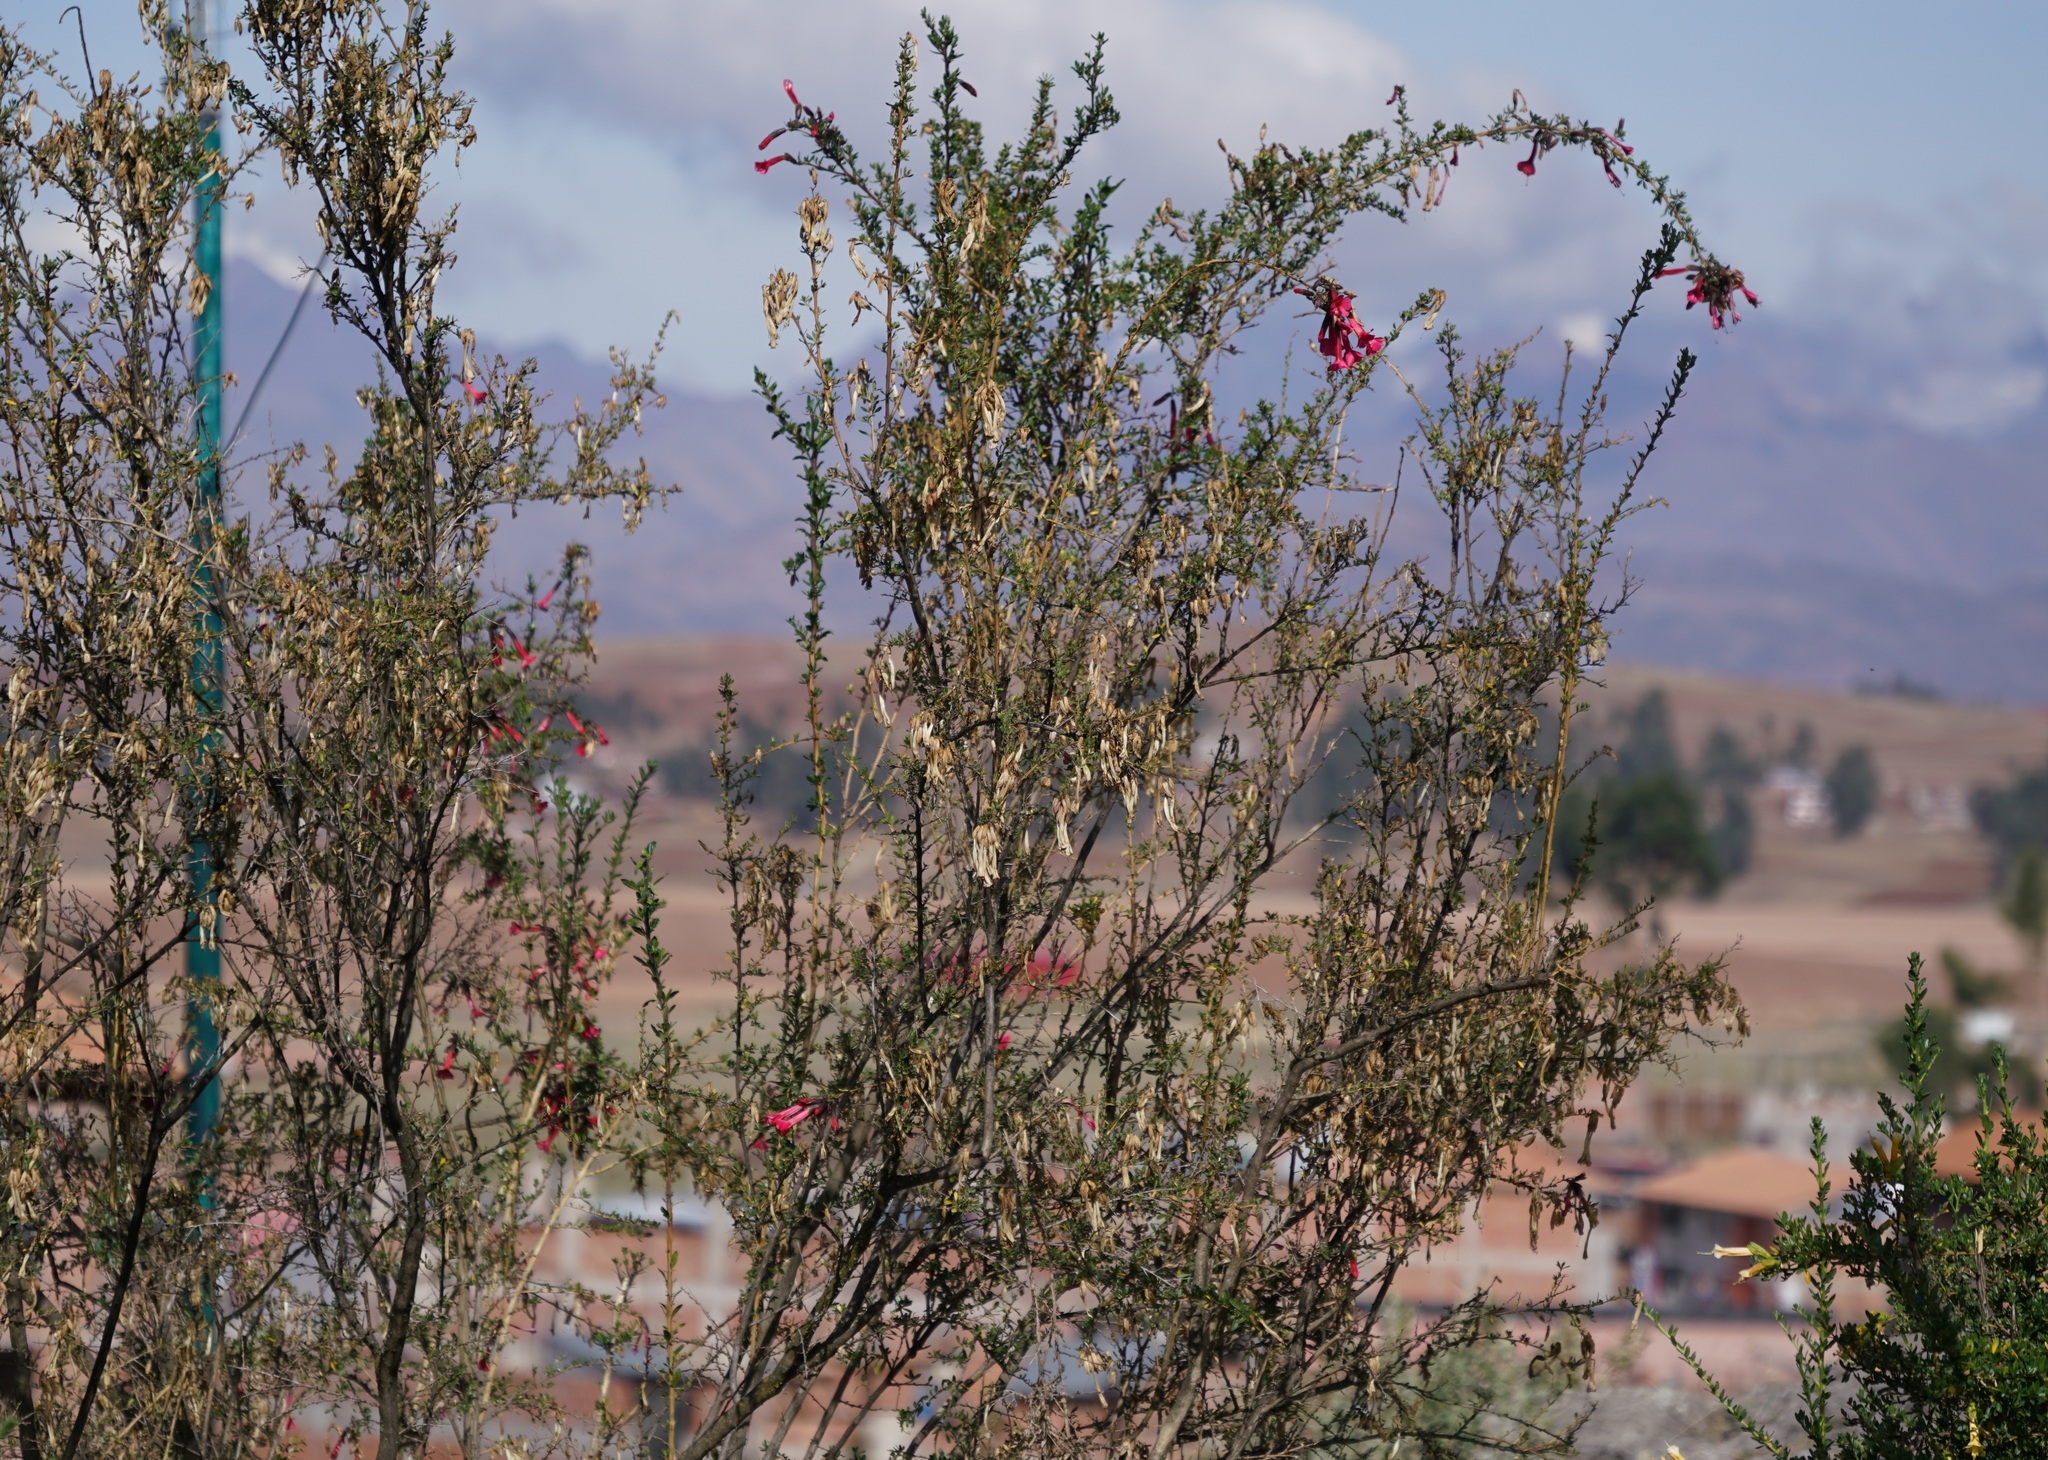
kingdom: Plantae
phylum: Tracheophyta
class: Magnoliopsida
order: Ericales
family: Polemoniaceae
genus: Cantua
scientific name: Cantua buxifolia
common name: Sacred-flower-of-the-incas
